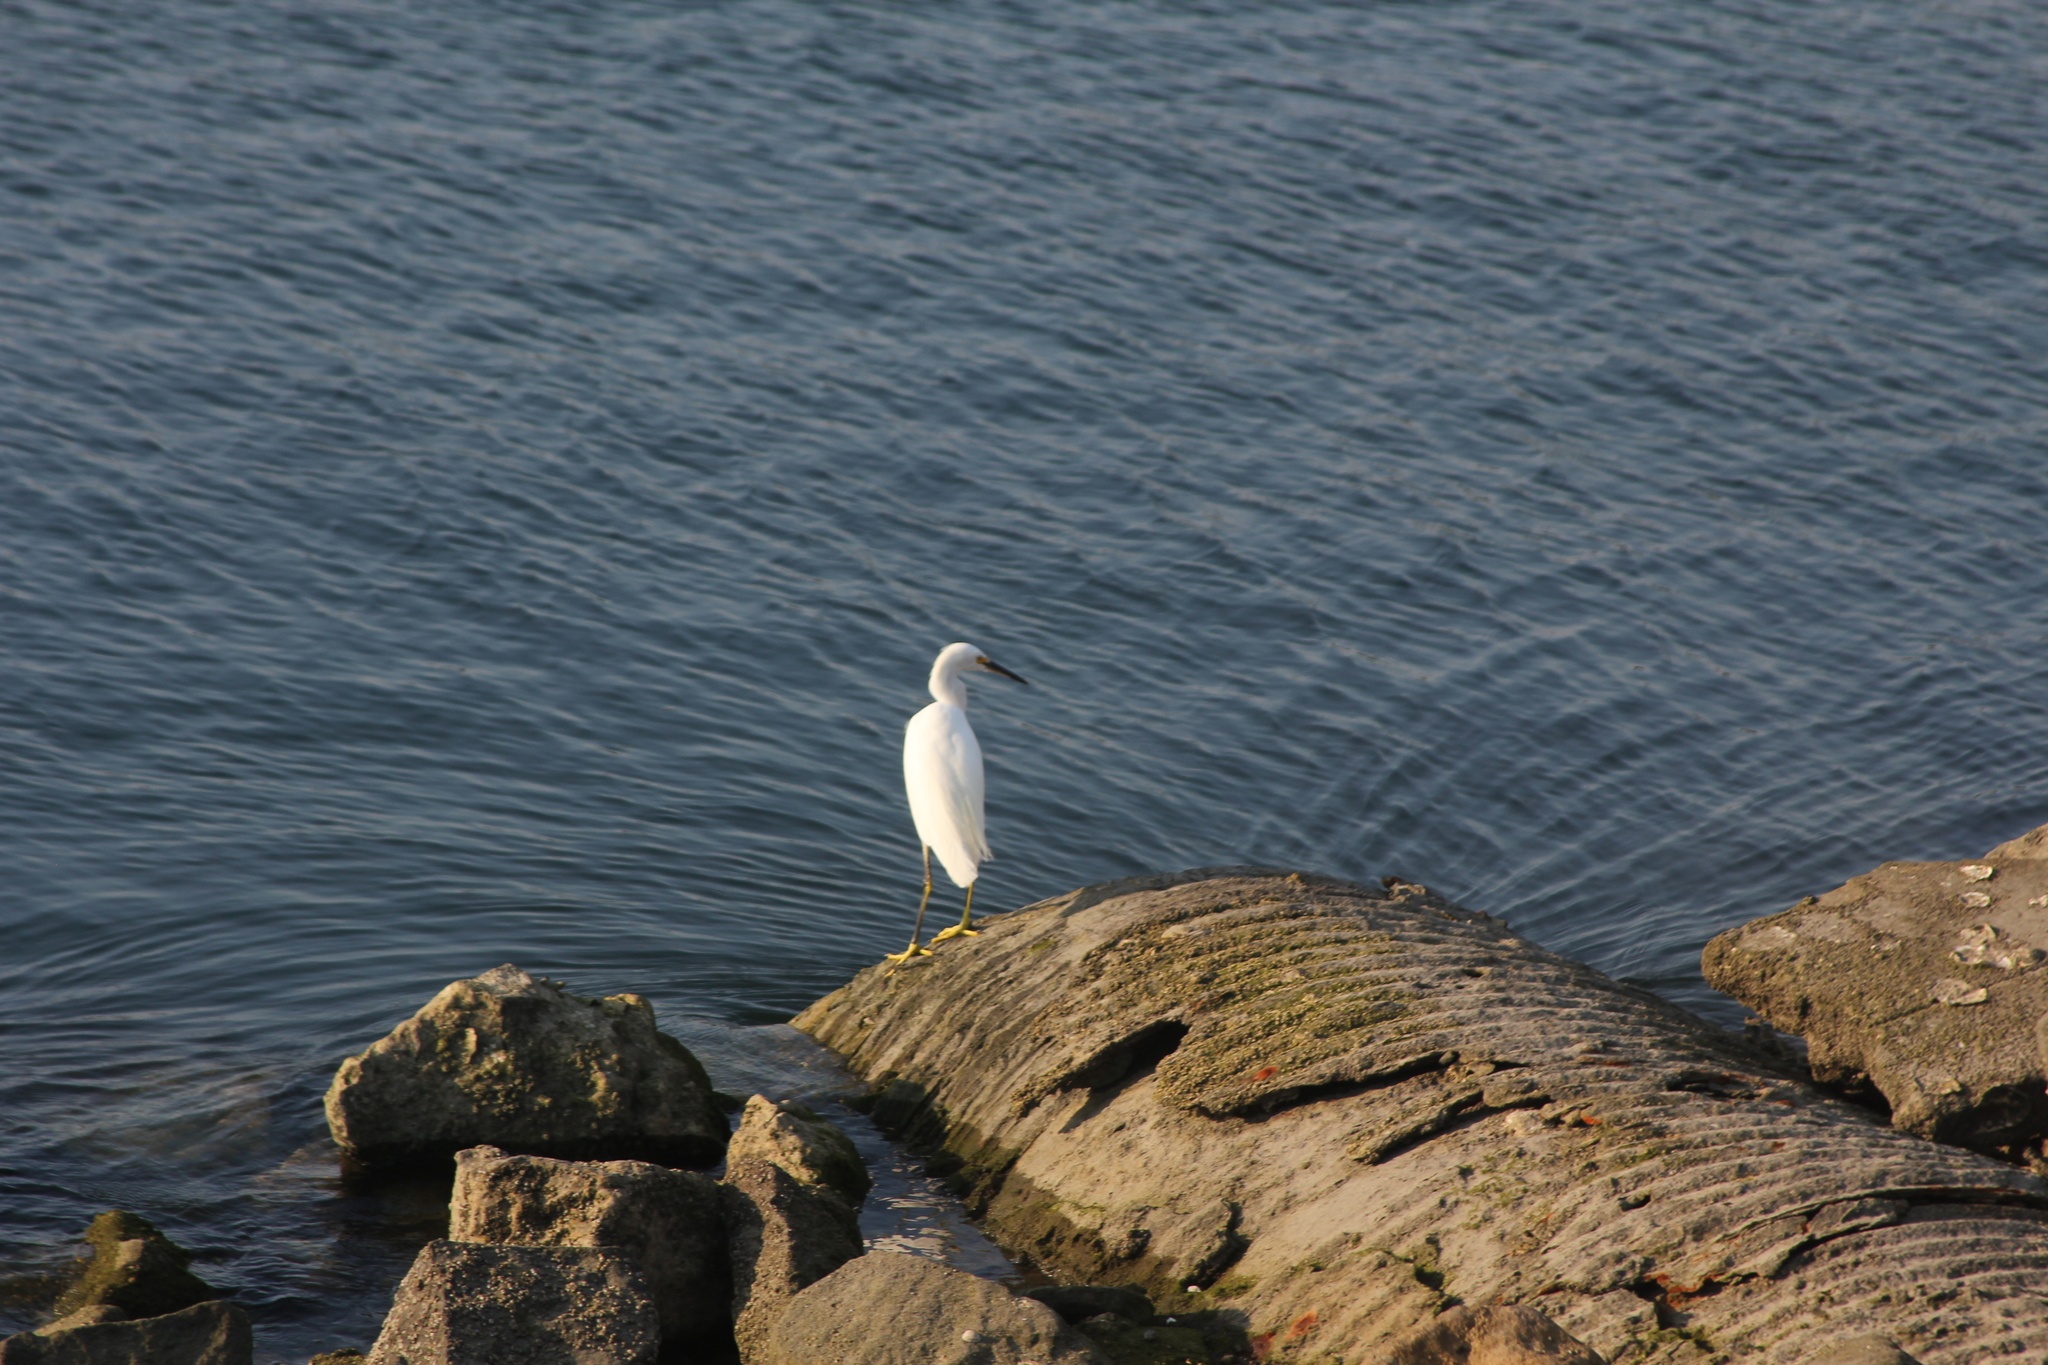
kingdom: Animalia
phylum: Chordata
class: Aves
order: Pelecaniformes
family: Ardeidae
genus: Egretta
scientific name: Egretta thula
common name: Snowy egret
